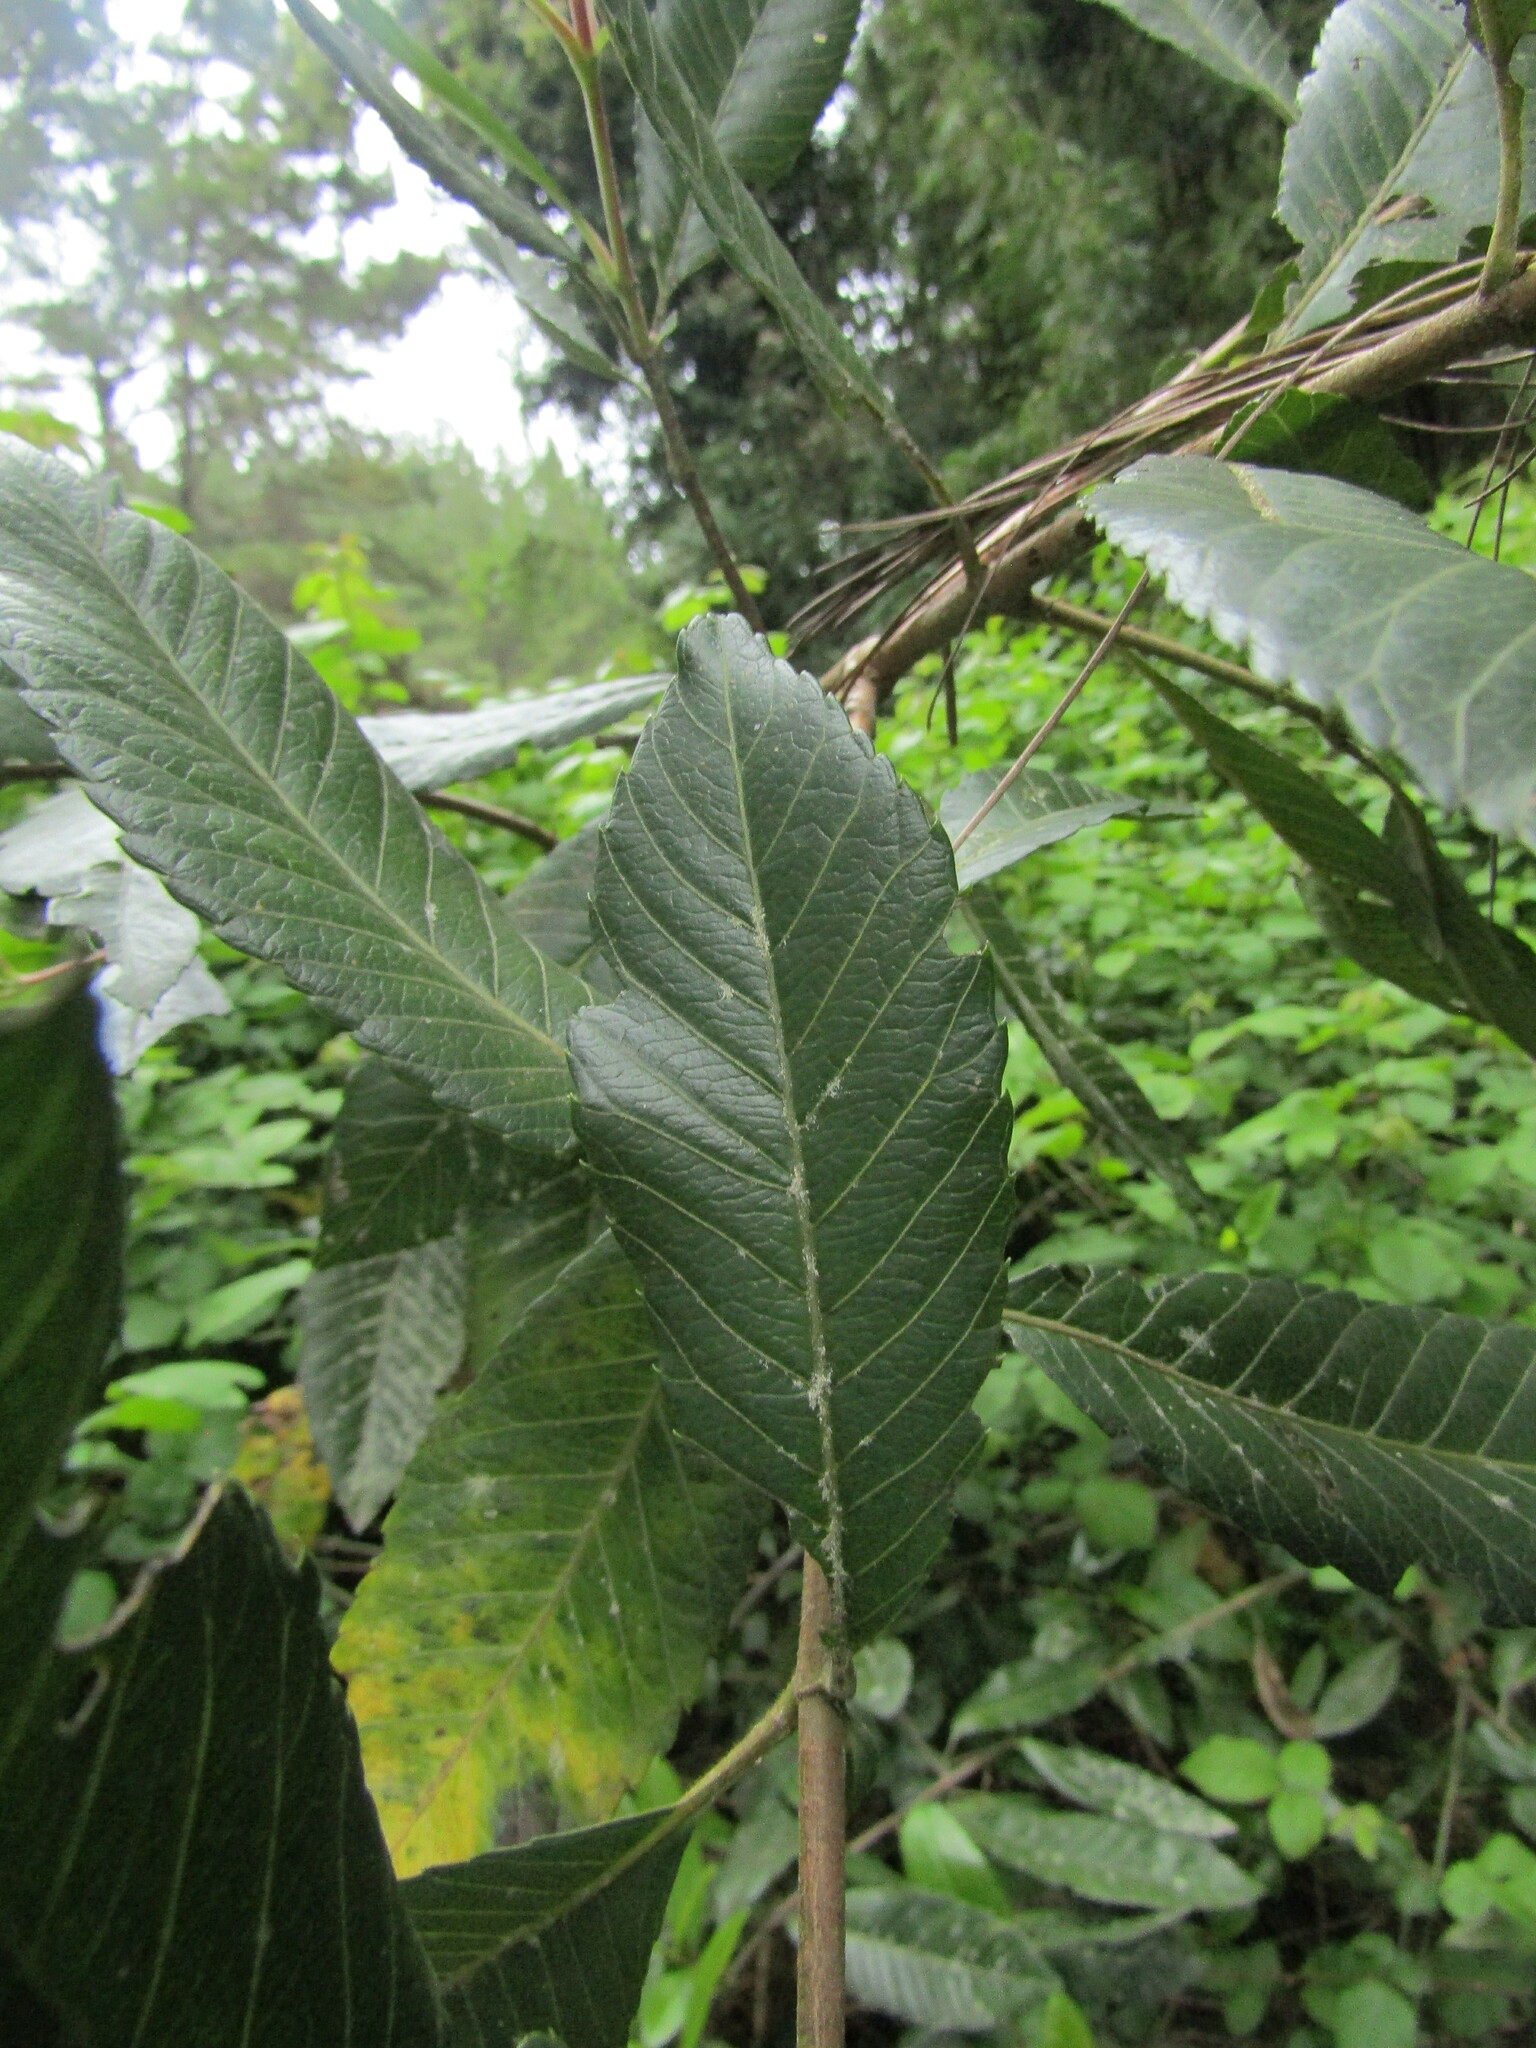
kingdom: Plantae
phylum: Tracheophyta
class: Magnoliopsida
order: Oxalidales
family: Cunoniaceae
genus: Caldcluvia
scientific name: Caldcluvia paniculata
